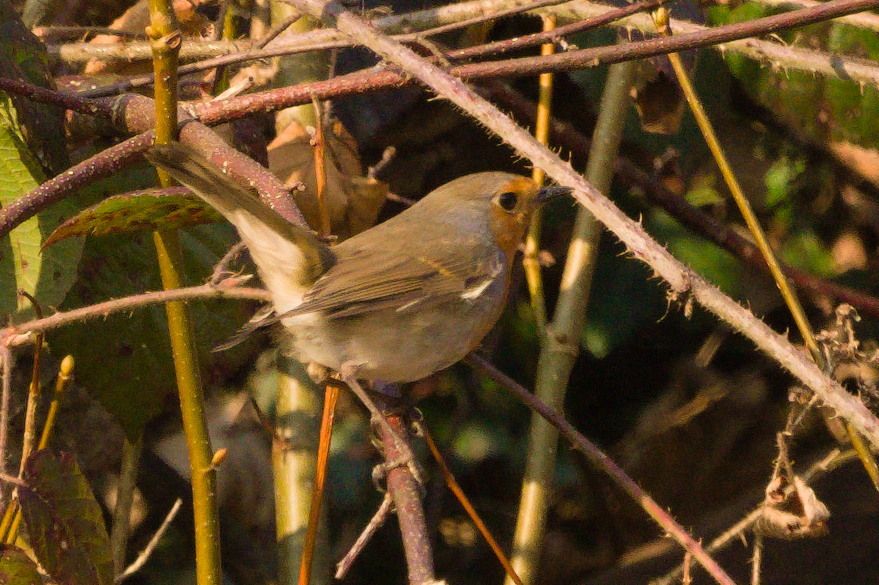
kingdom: Animalia
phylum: Chordata
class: Aves
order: Passeriformes
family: Muscicapidae
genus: Erithacus
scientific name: Erithacus rubecula
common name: European robin
